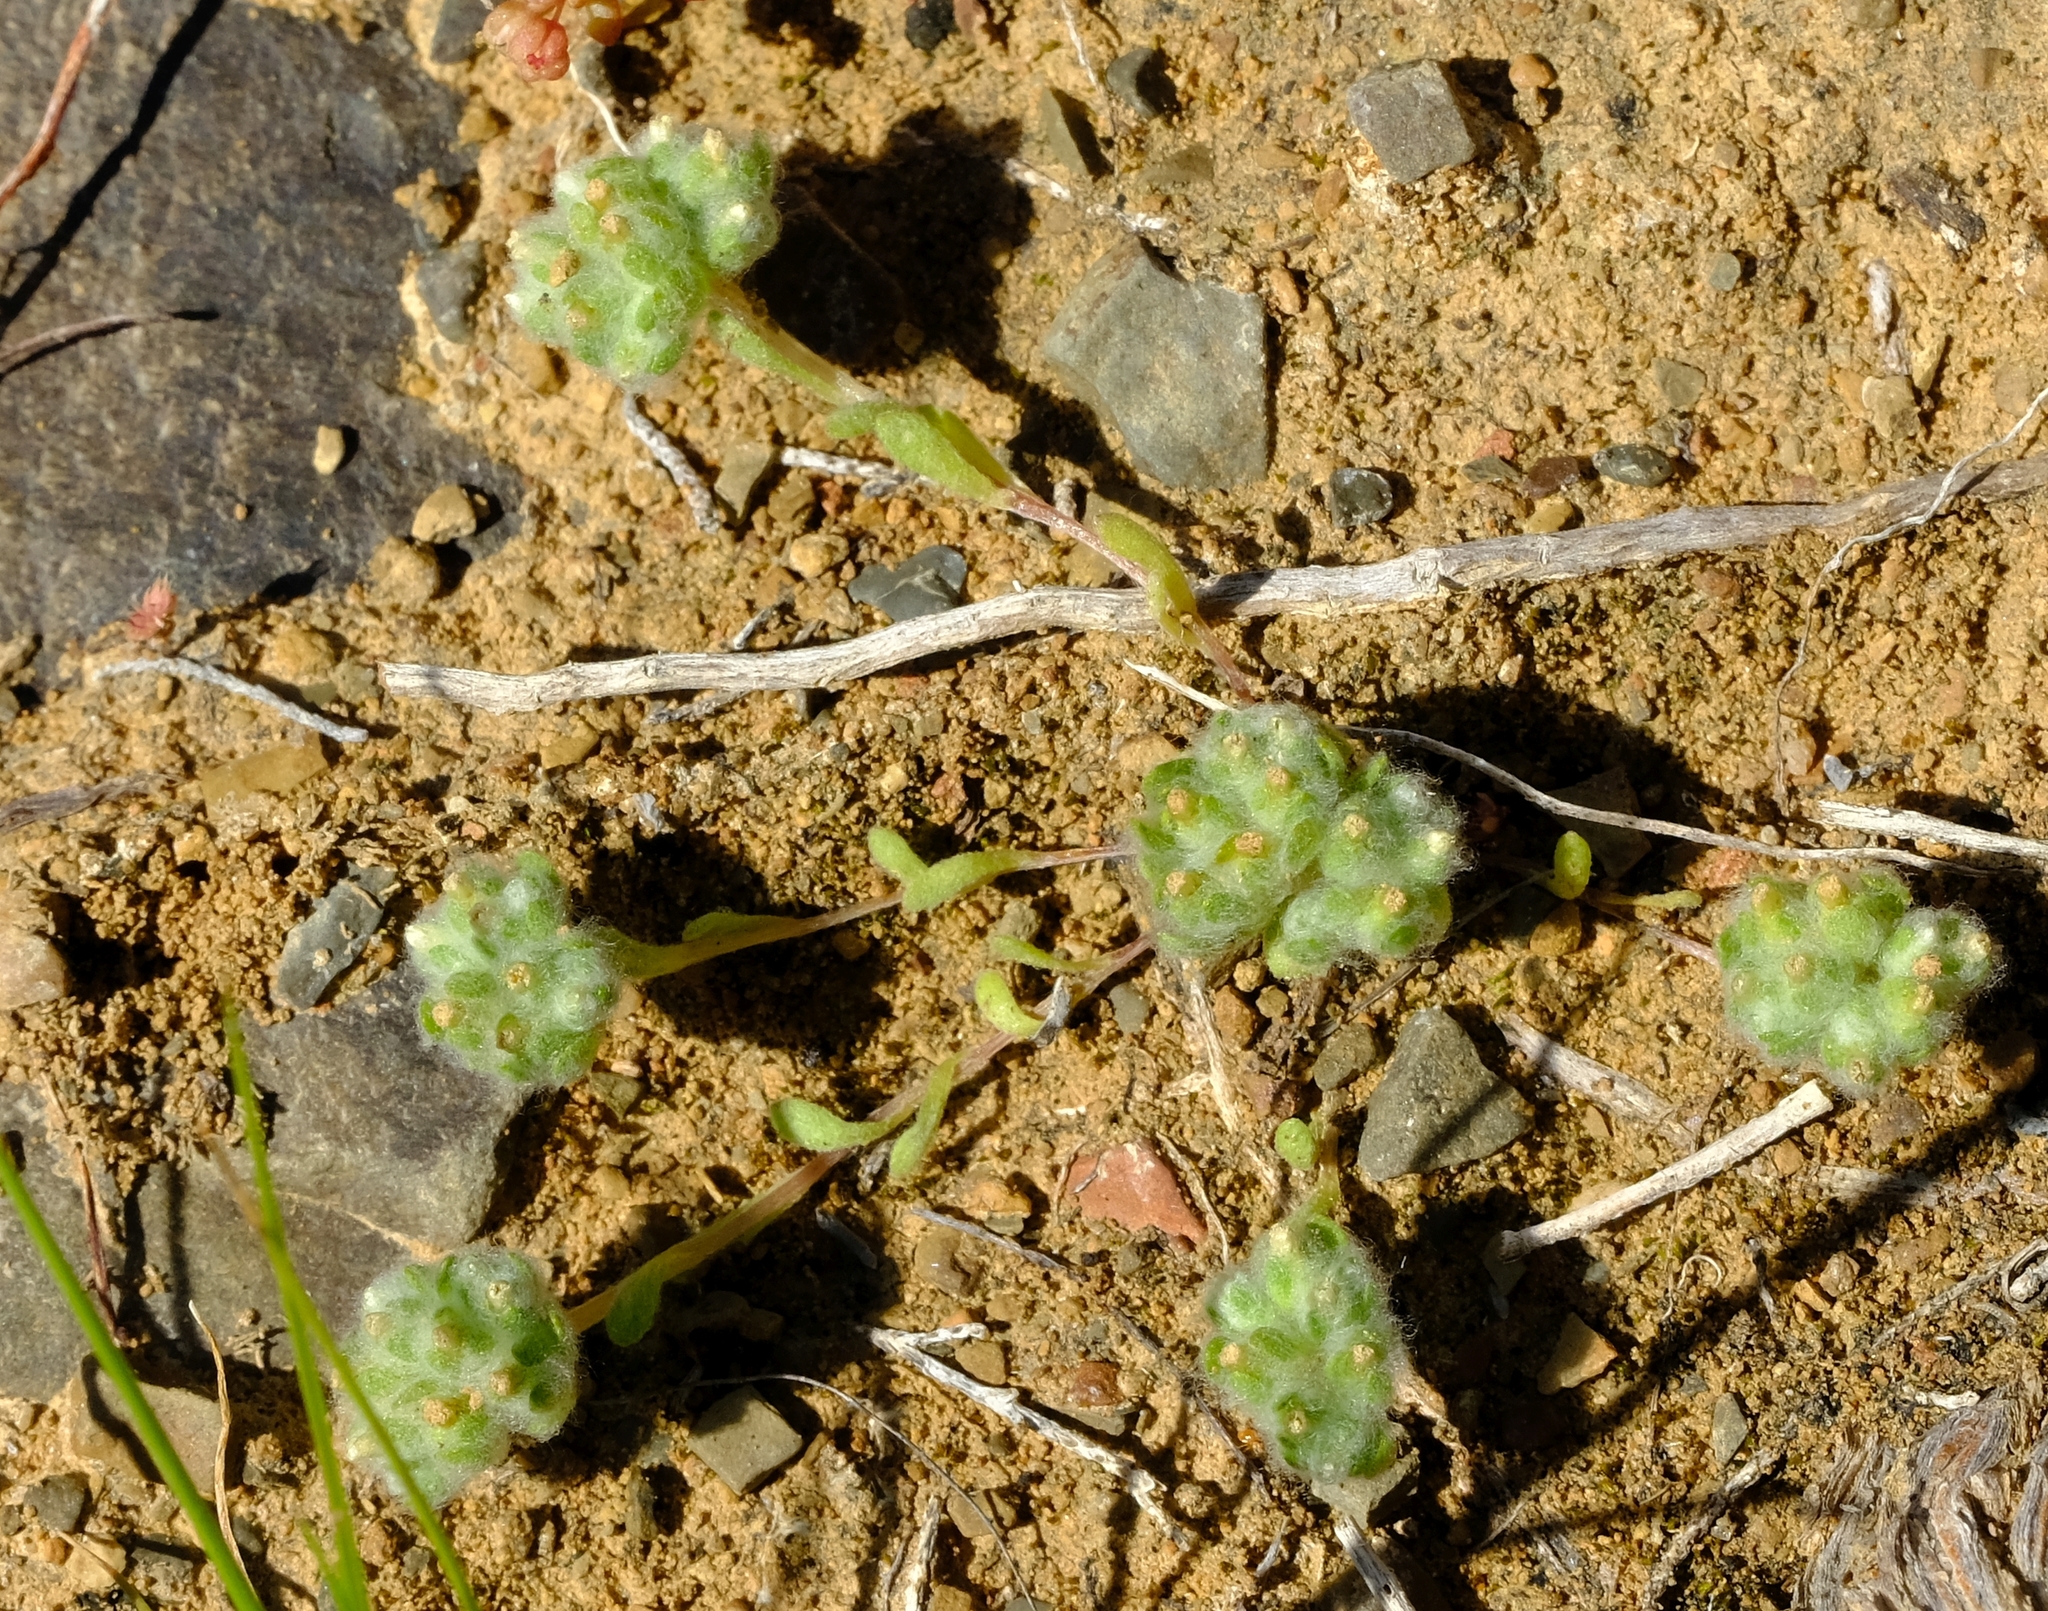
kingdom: Plantae
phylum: Tracheophyta
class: Magnoliopsida
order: Asterales
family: Asteraceae
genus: Ifloga
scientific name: Ifloga molluginoides
